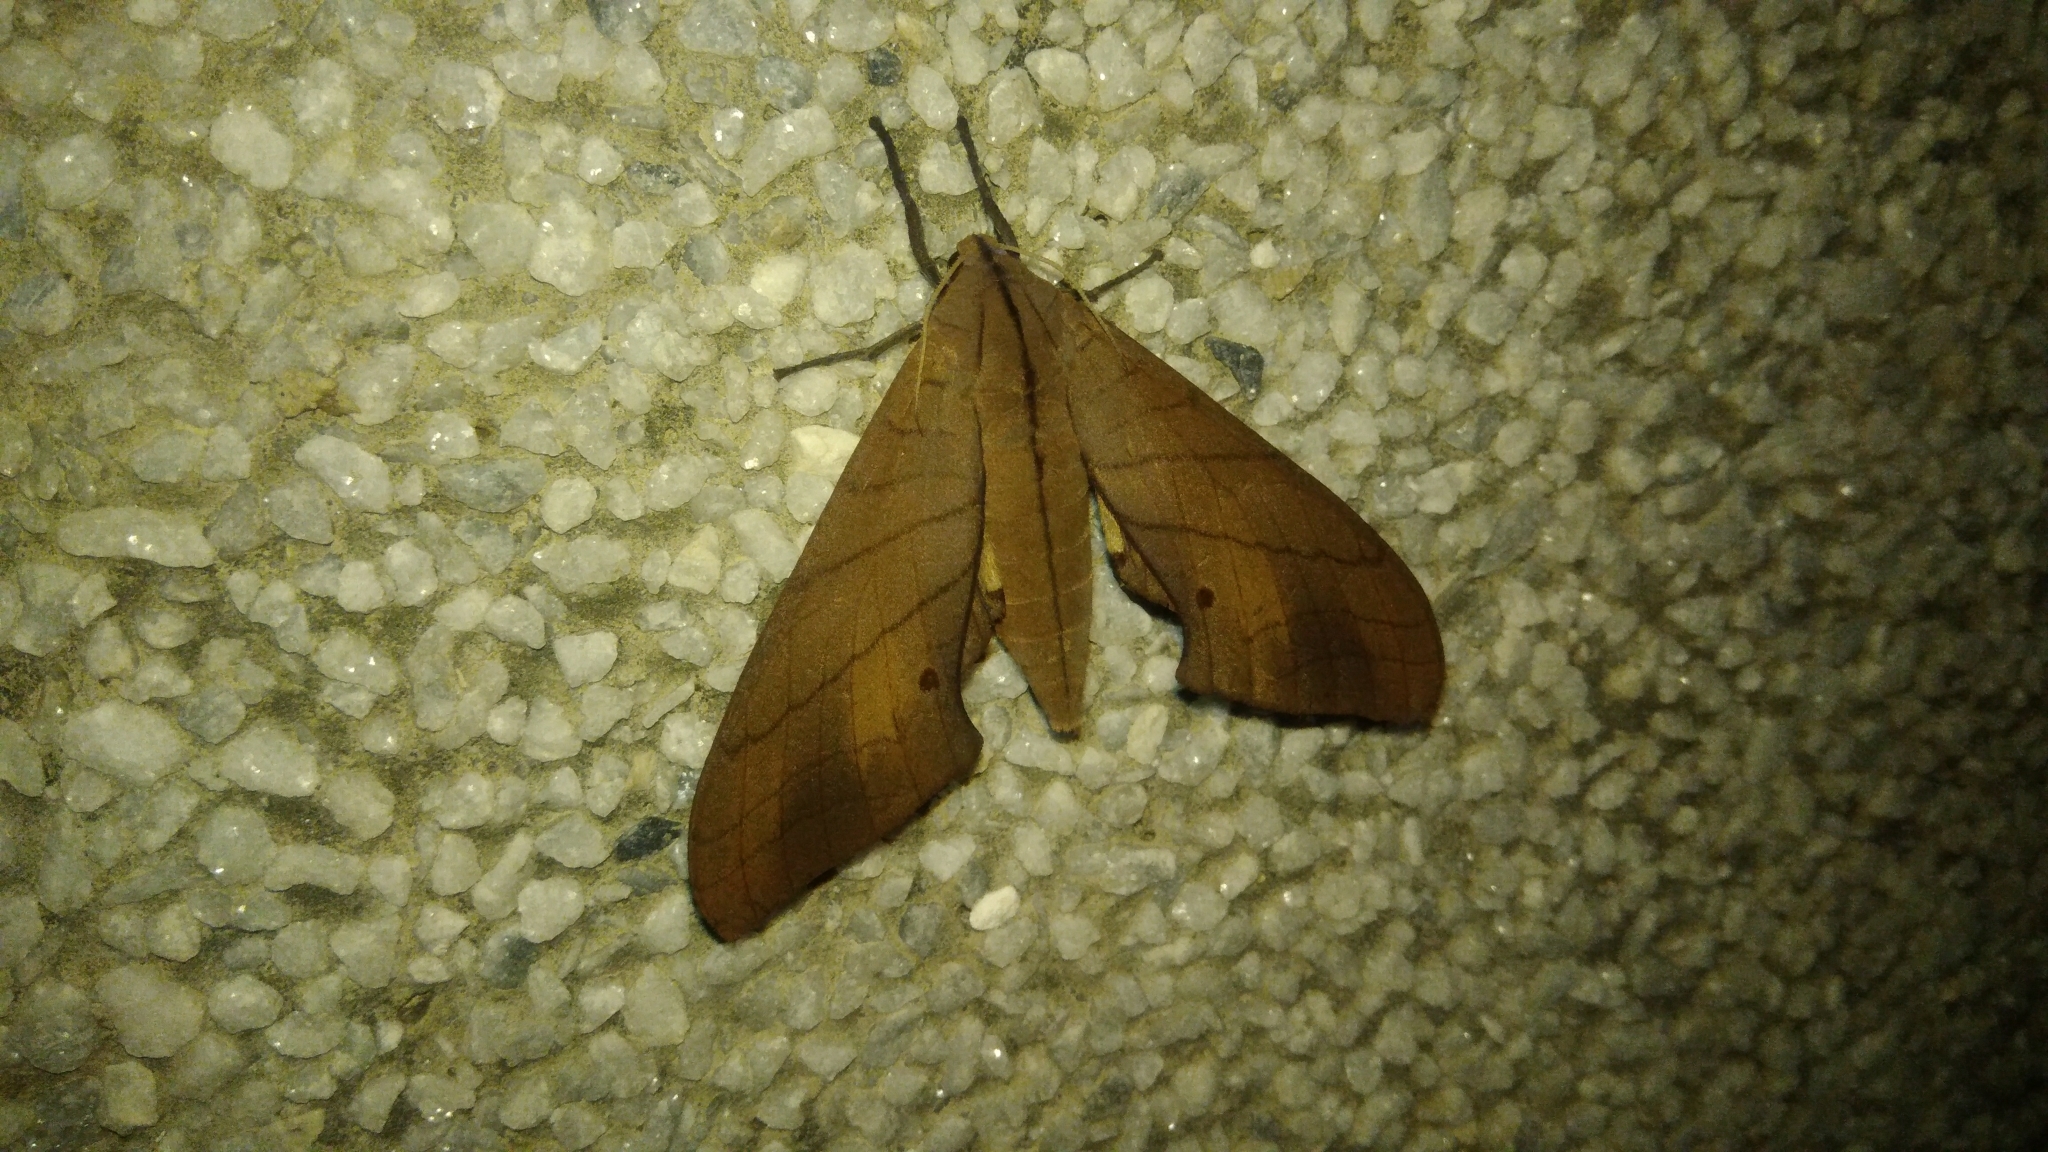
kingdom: Animalia
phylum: Arthropoda
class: Insecta
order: Lepidoptera
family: Sphingidae
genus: Marumba
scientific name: Marumba cristata
